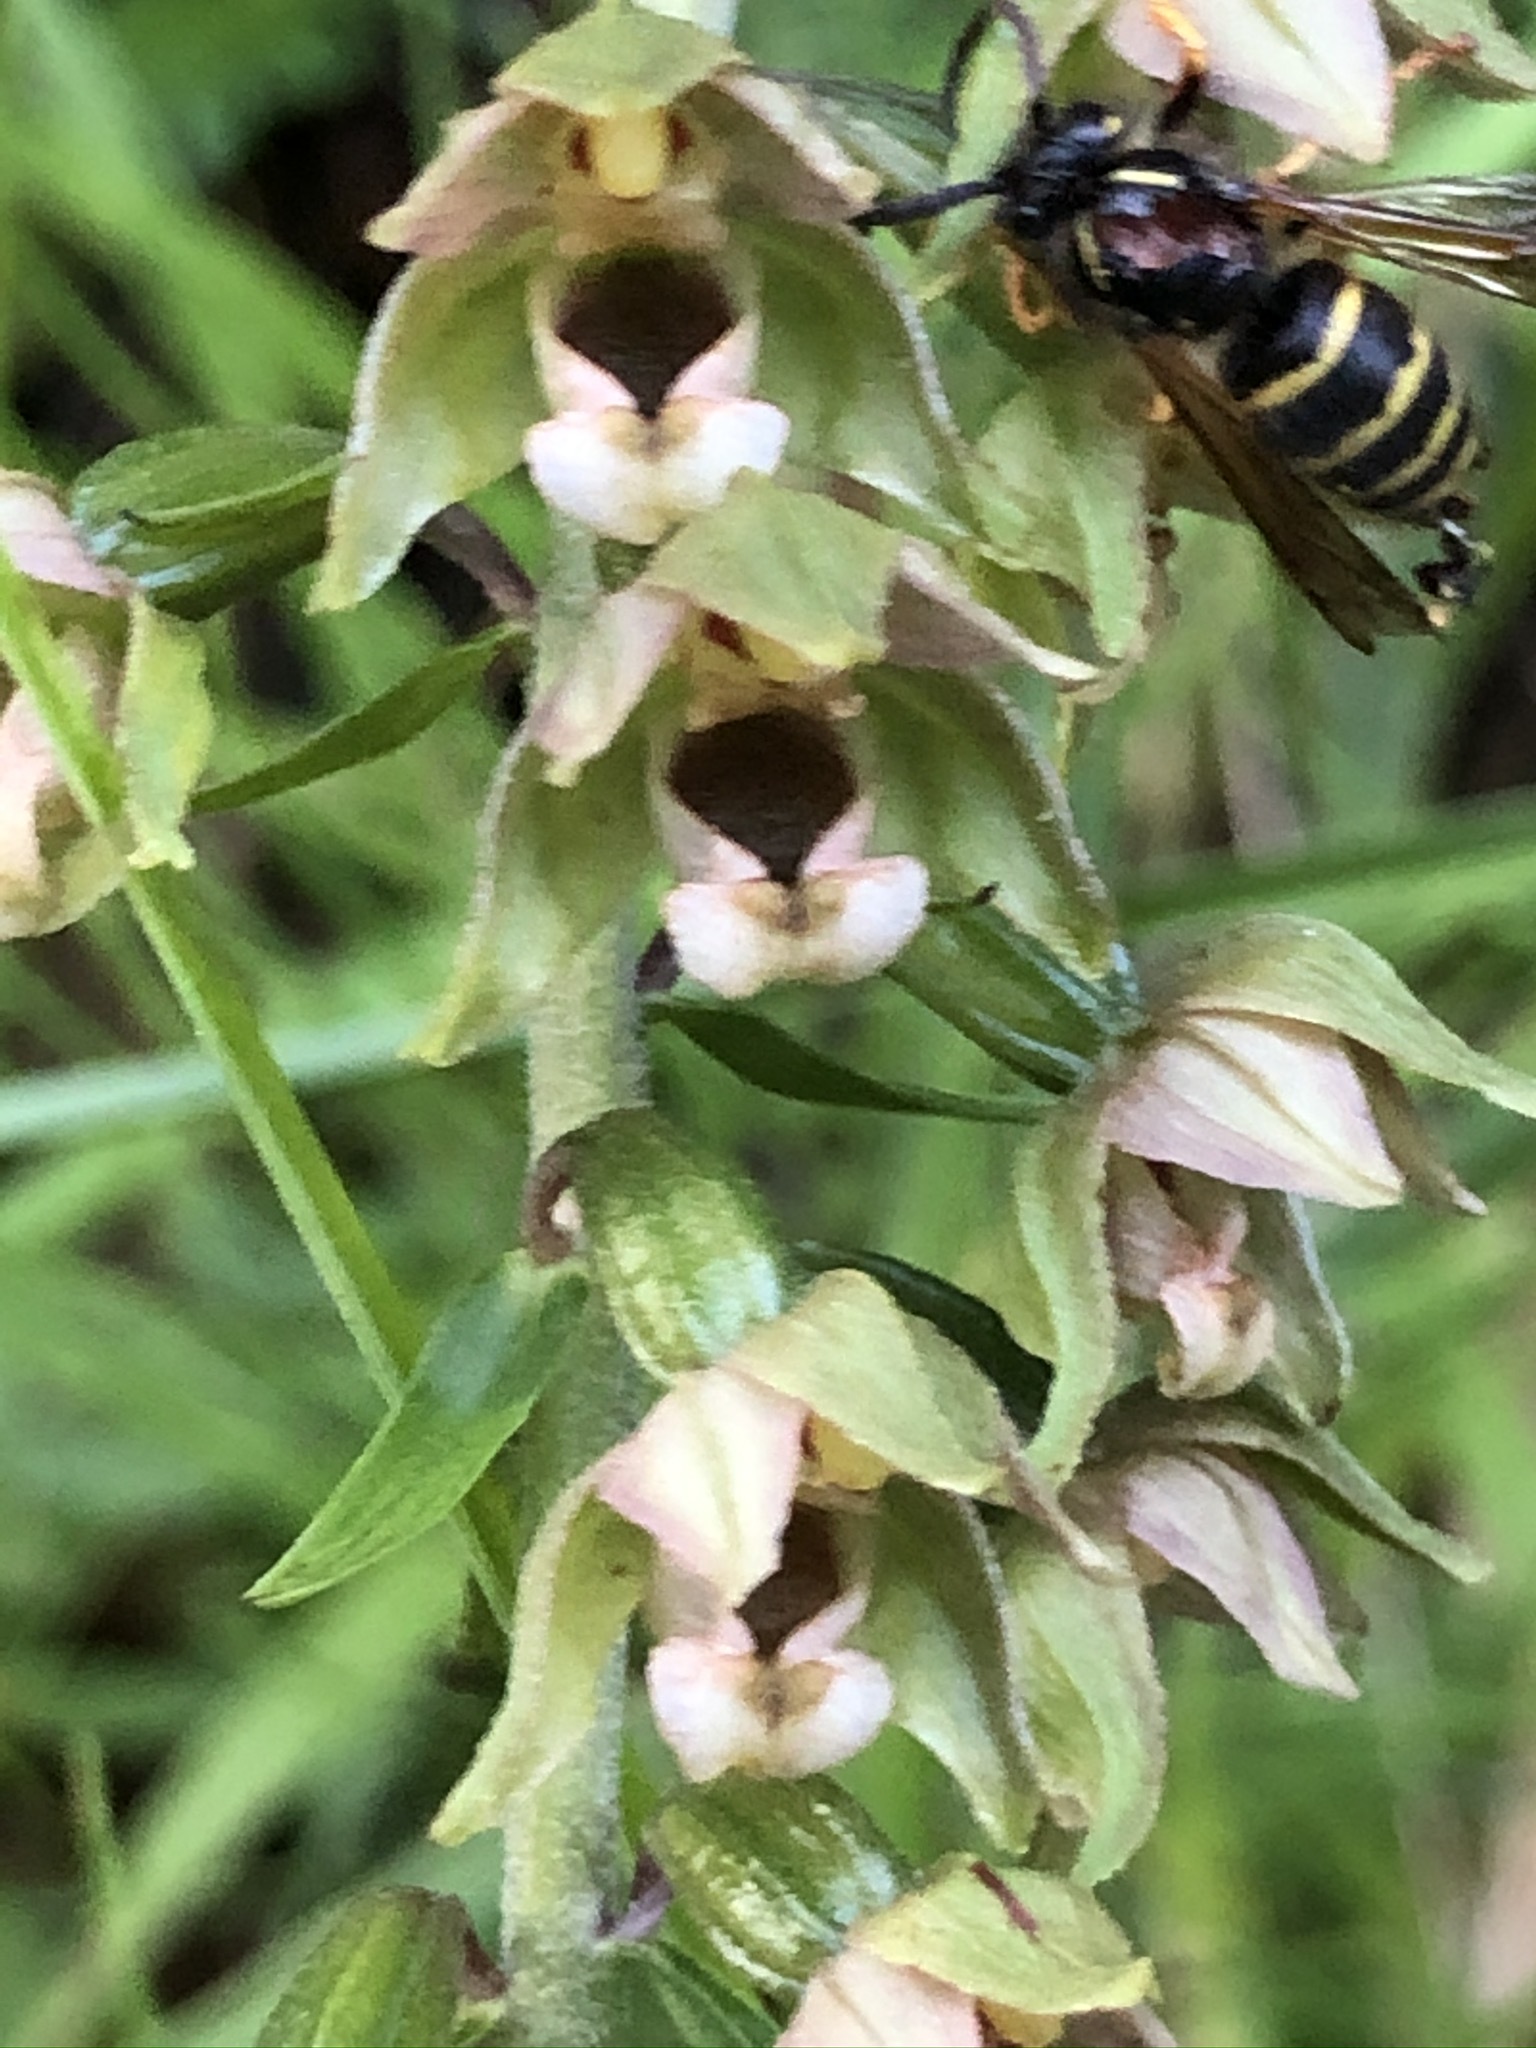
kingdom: Plantae
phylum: Tracheophyta
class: Liliopsida
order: Asparagales
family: Orchidaceae
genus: Epipactis
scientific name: Epipactis helleborine
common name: Broad-leaved helleborine
